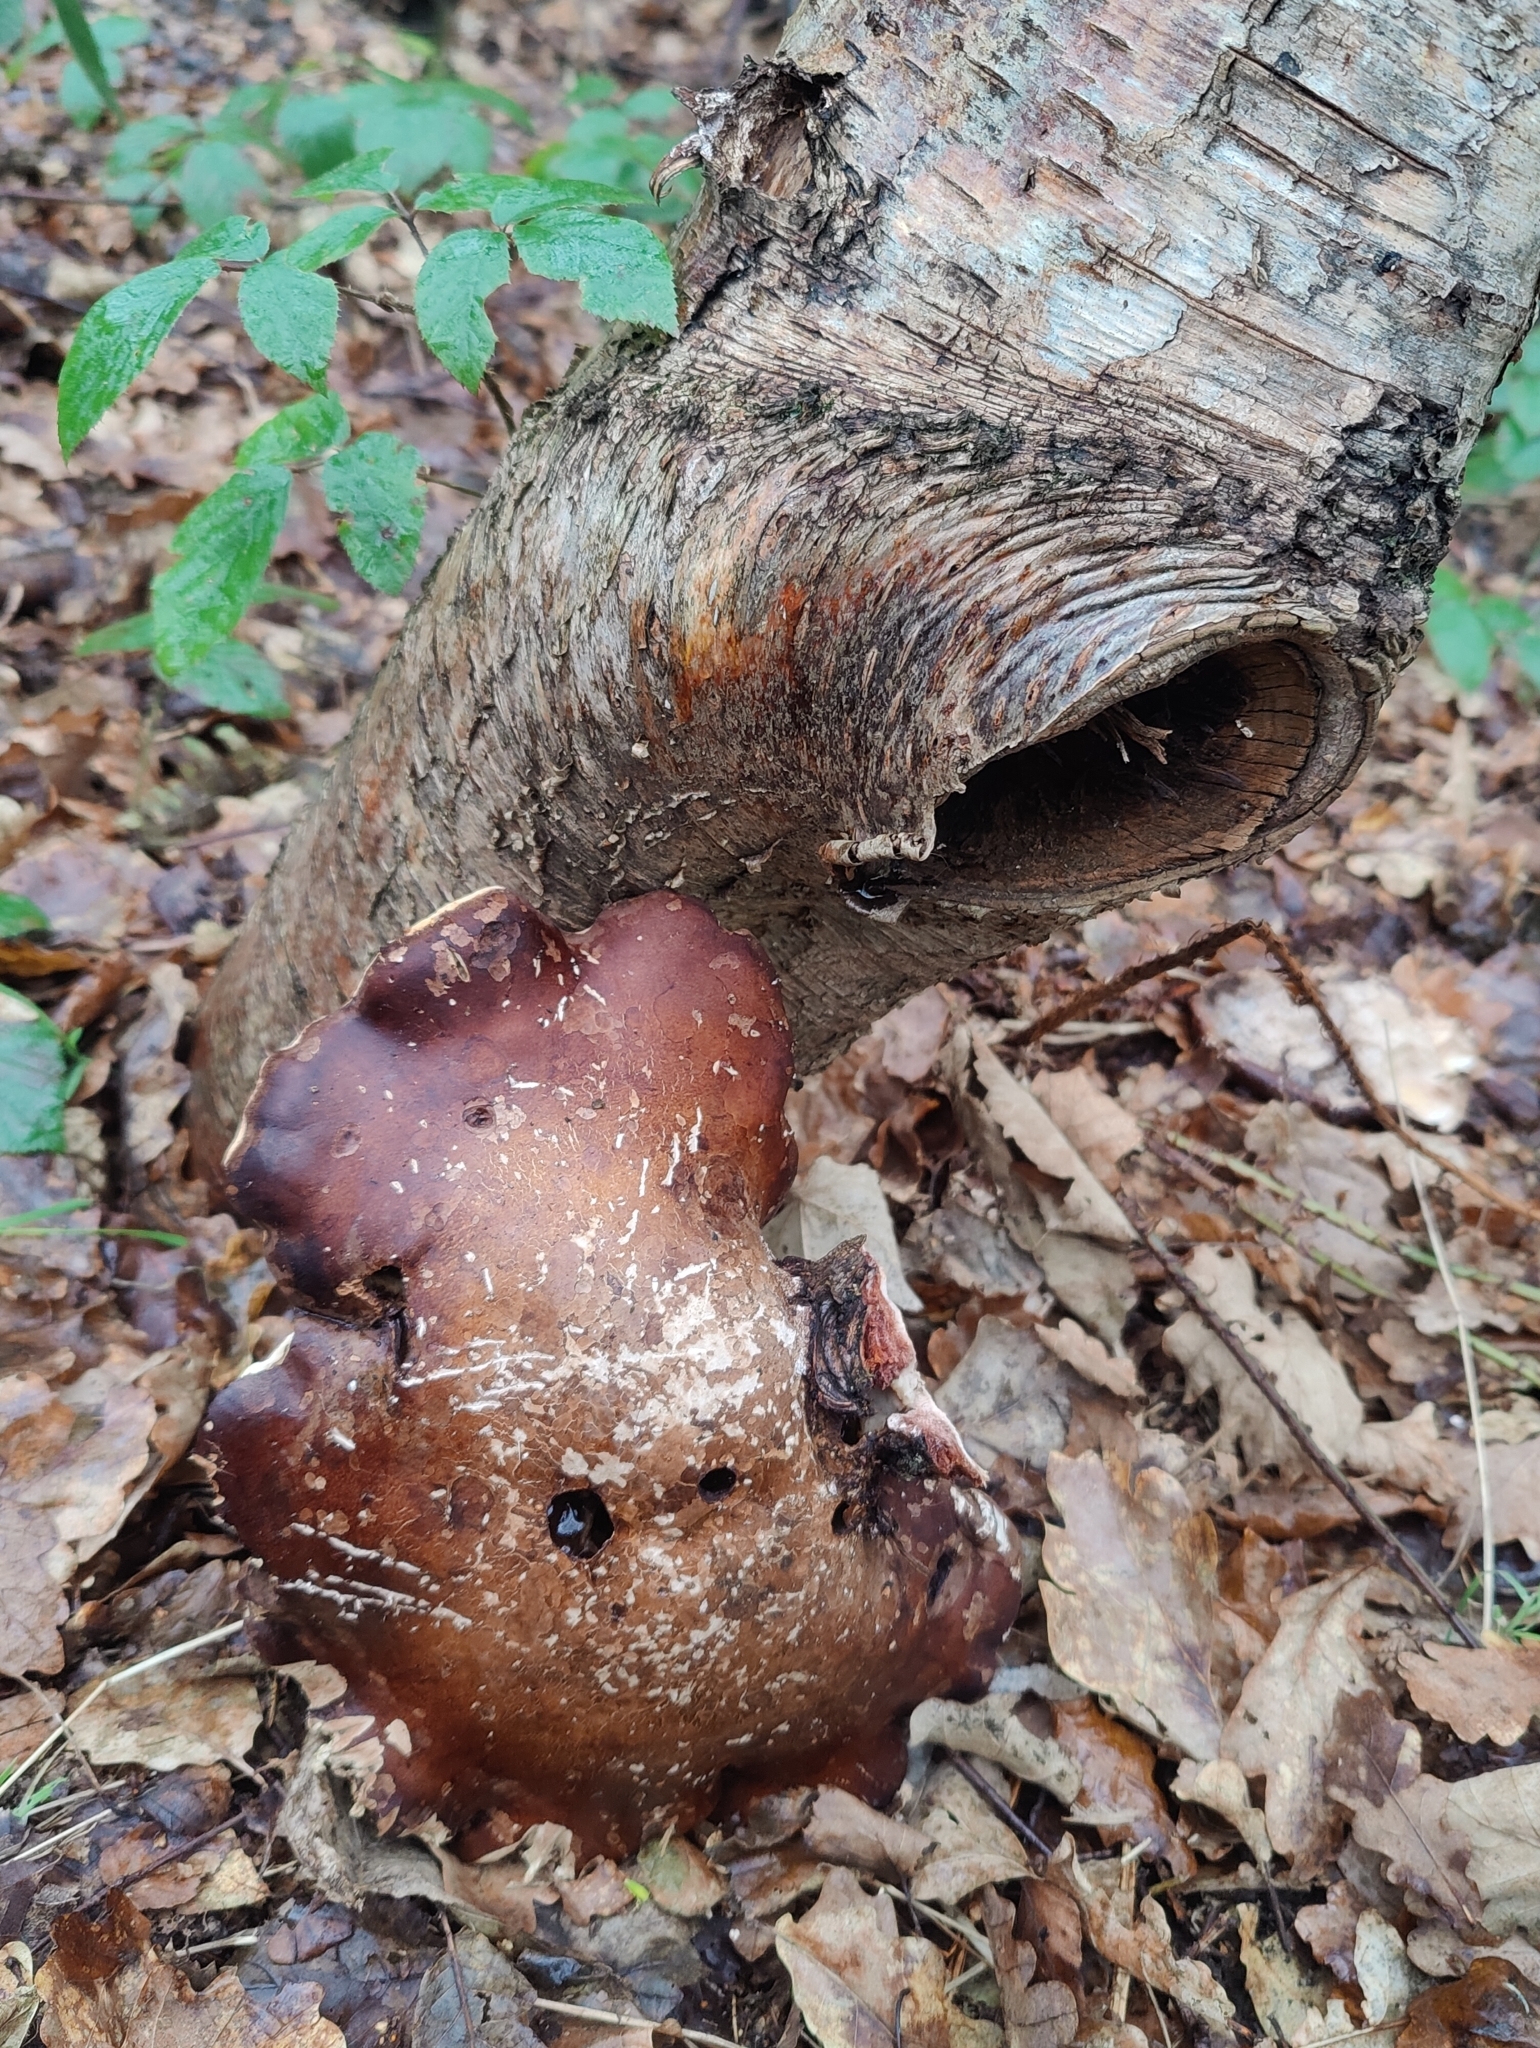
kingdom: Fungi
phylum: Basidiomycota
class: Agaricomycetes
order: Polyporales
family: Fomitopsidaceae
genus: Fomitopsis
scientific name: Fomitopsis betulina
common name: Birch polypore
